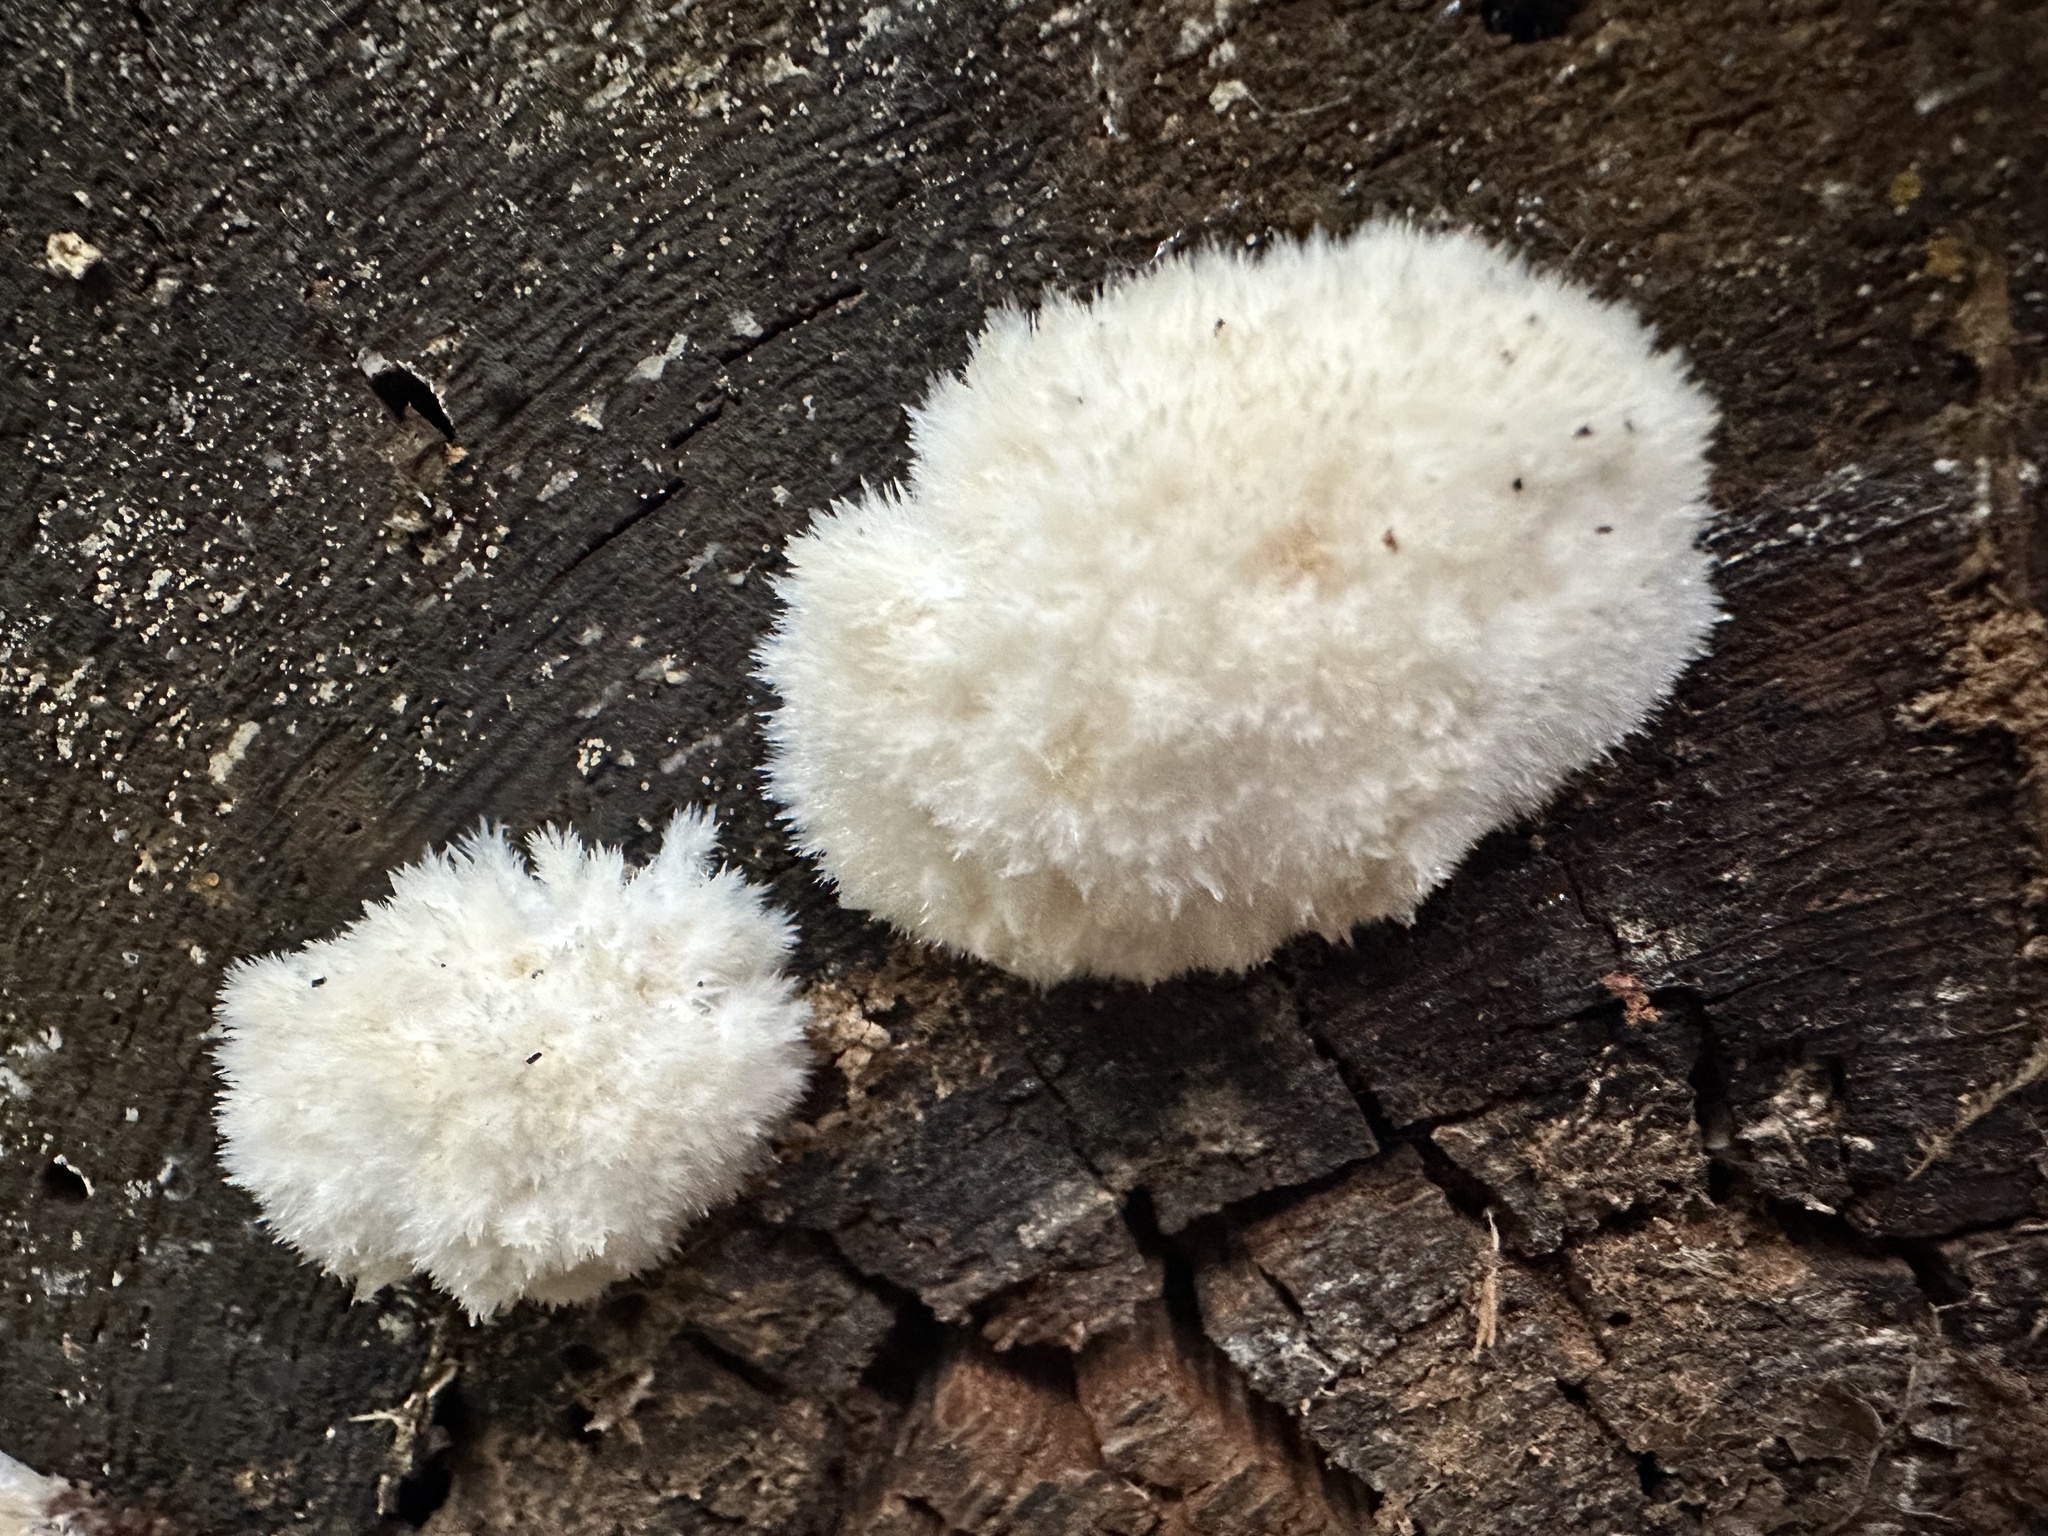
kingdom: Fungi
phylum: Basidiomycota
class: Agaricomycetes
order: Polyporales
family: Dacryobolaceae
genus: Postia
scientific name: Postia ptychogaster
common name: Powderpuff bracket
